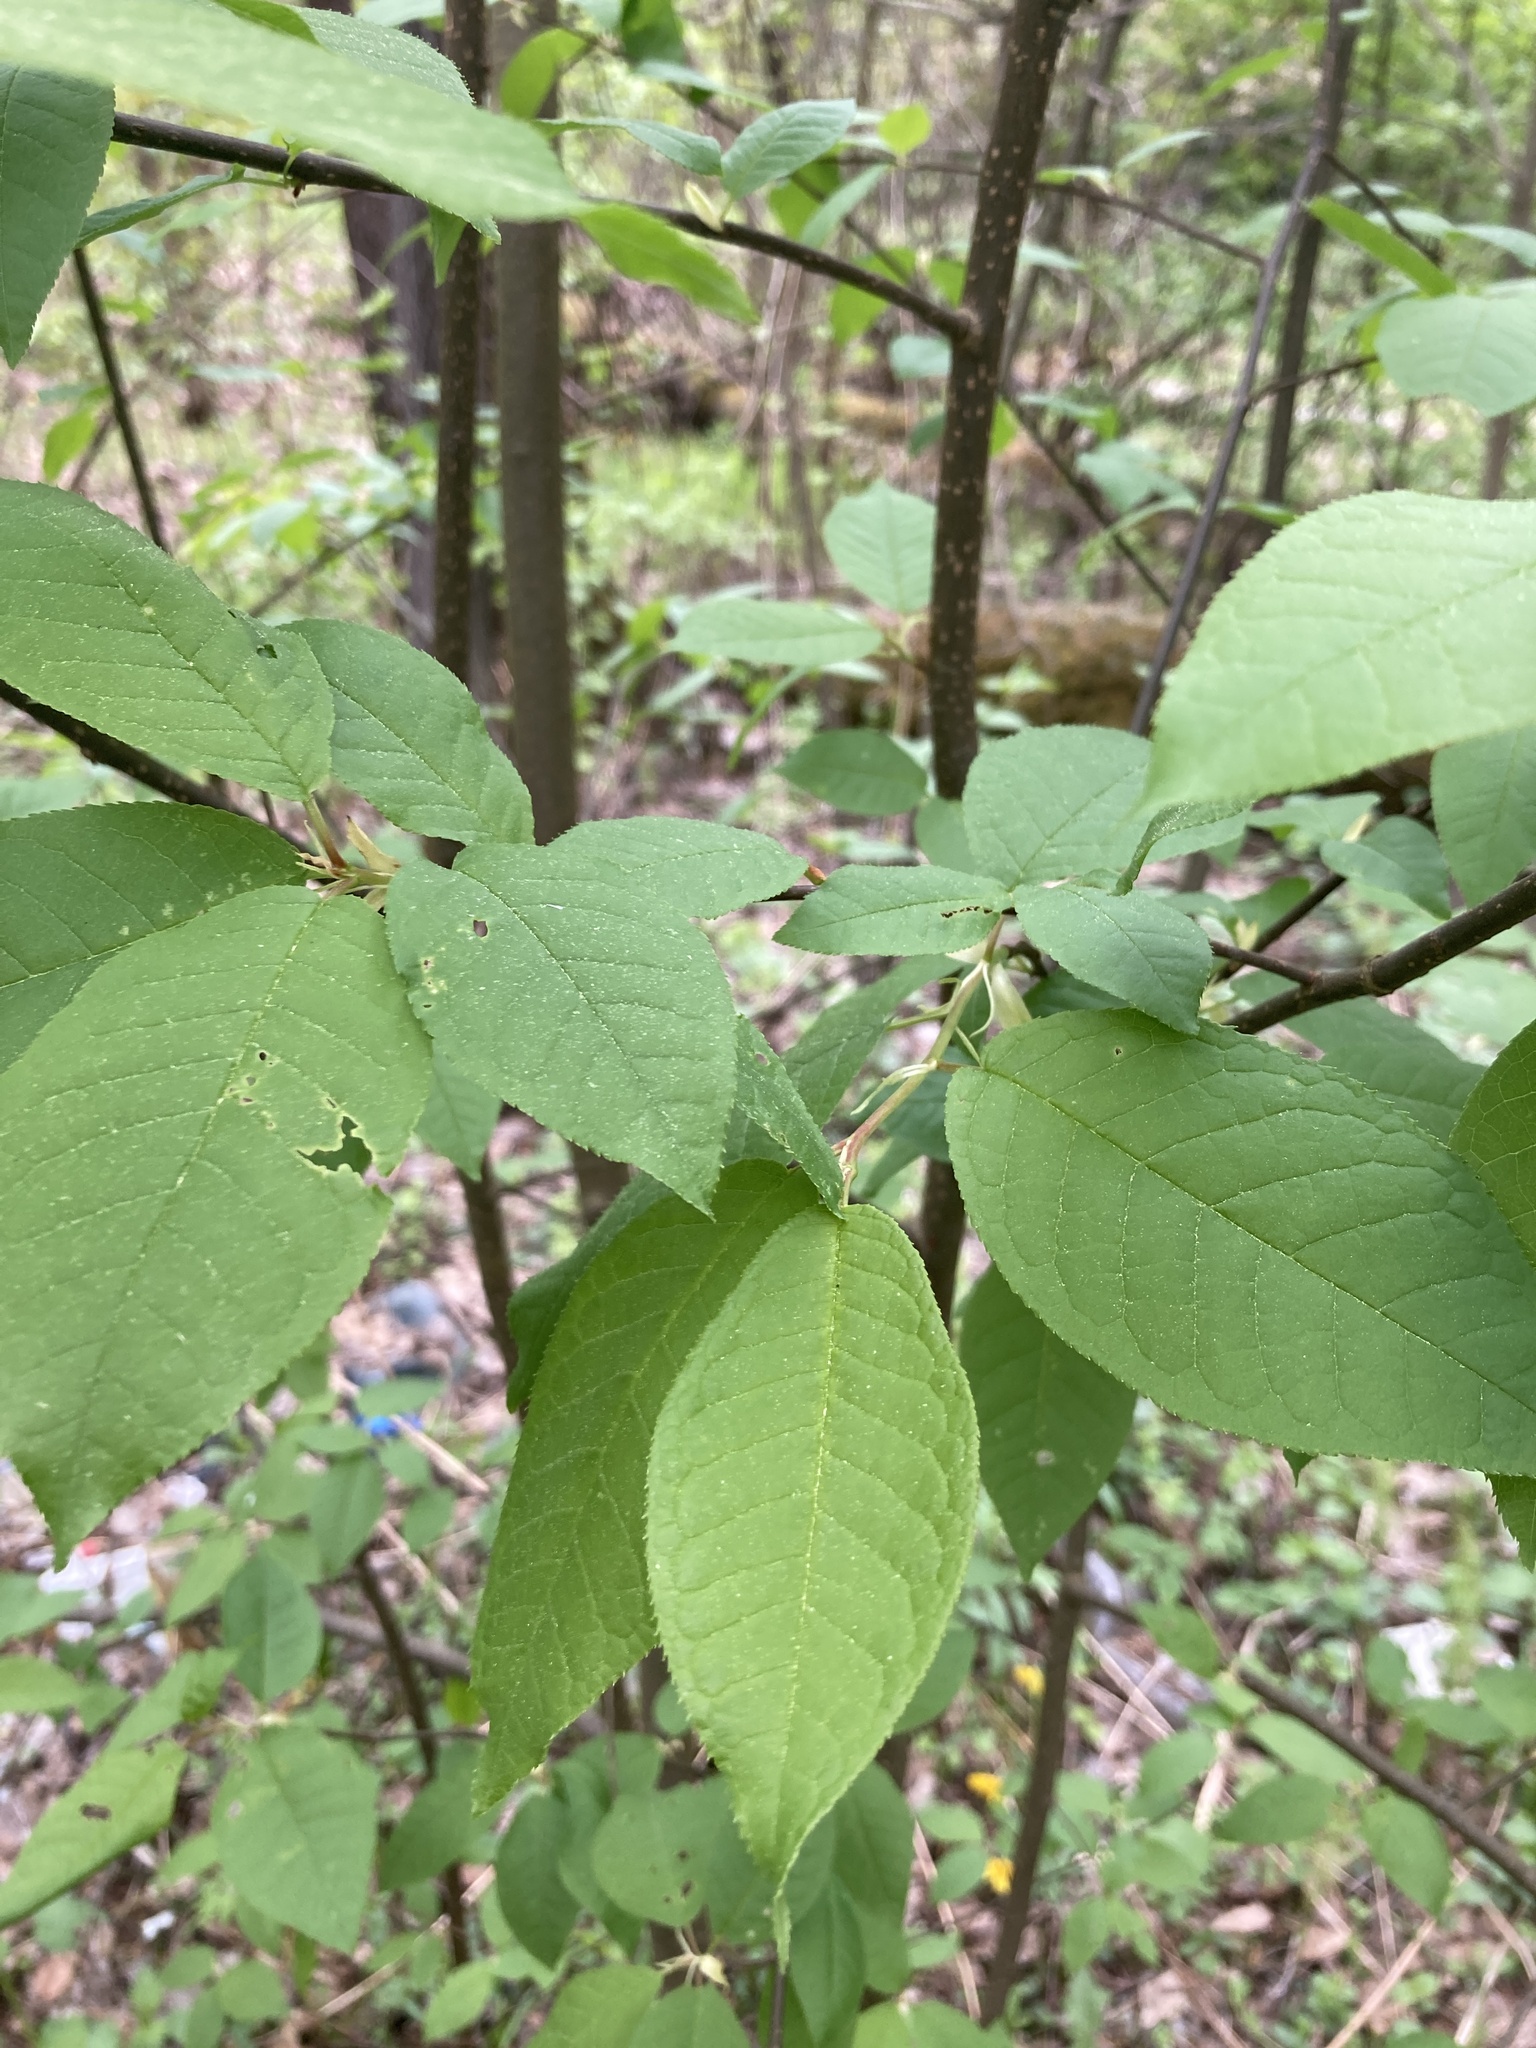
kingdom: Plantae
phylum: Tracheophyta
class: Magnoliopsida
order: Rosales
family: Rosaceae
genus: Prunus
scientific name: Prunus padus
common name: Bird cherry
